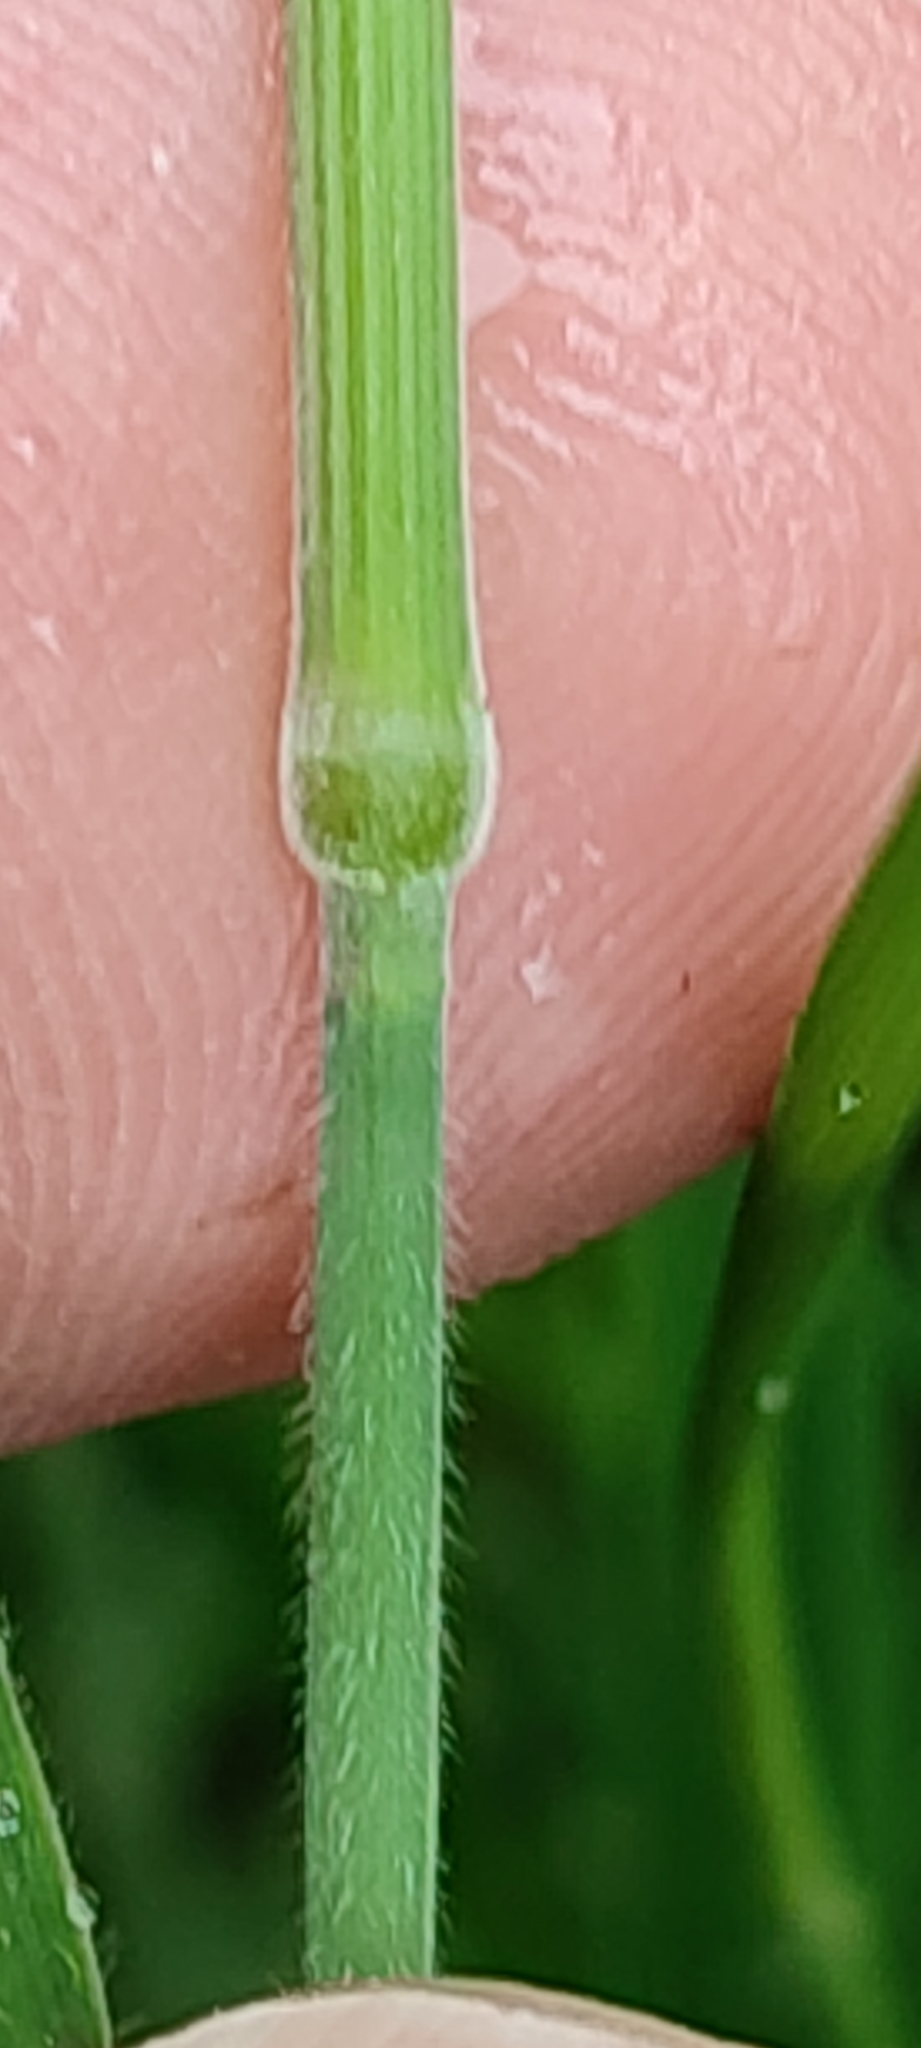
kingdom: Plantae
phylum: Tracheophyta
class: Liliopsida
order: Poales
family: Poaceae
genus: Holcus
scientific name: Holcus lanatus
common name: Yorkshire-fog
